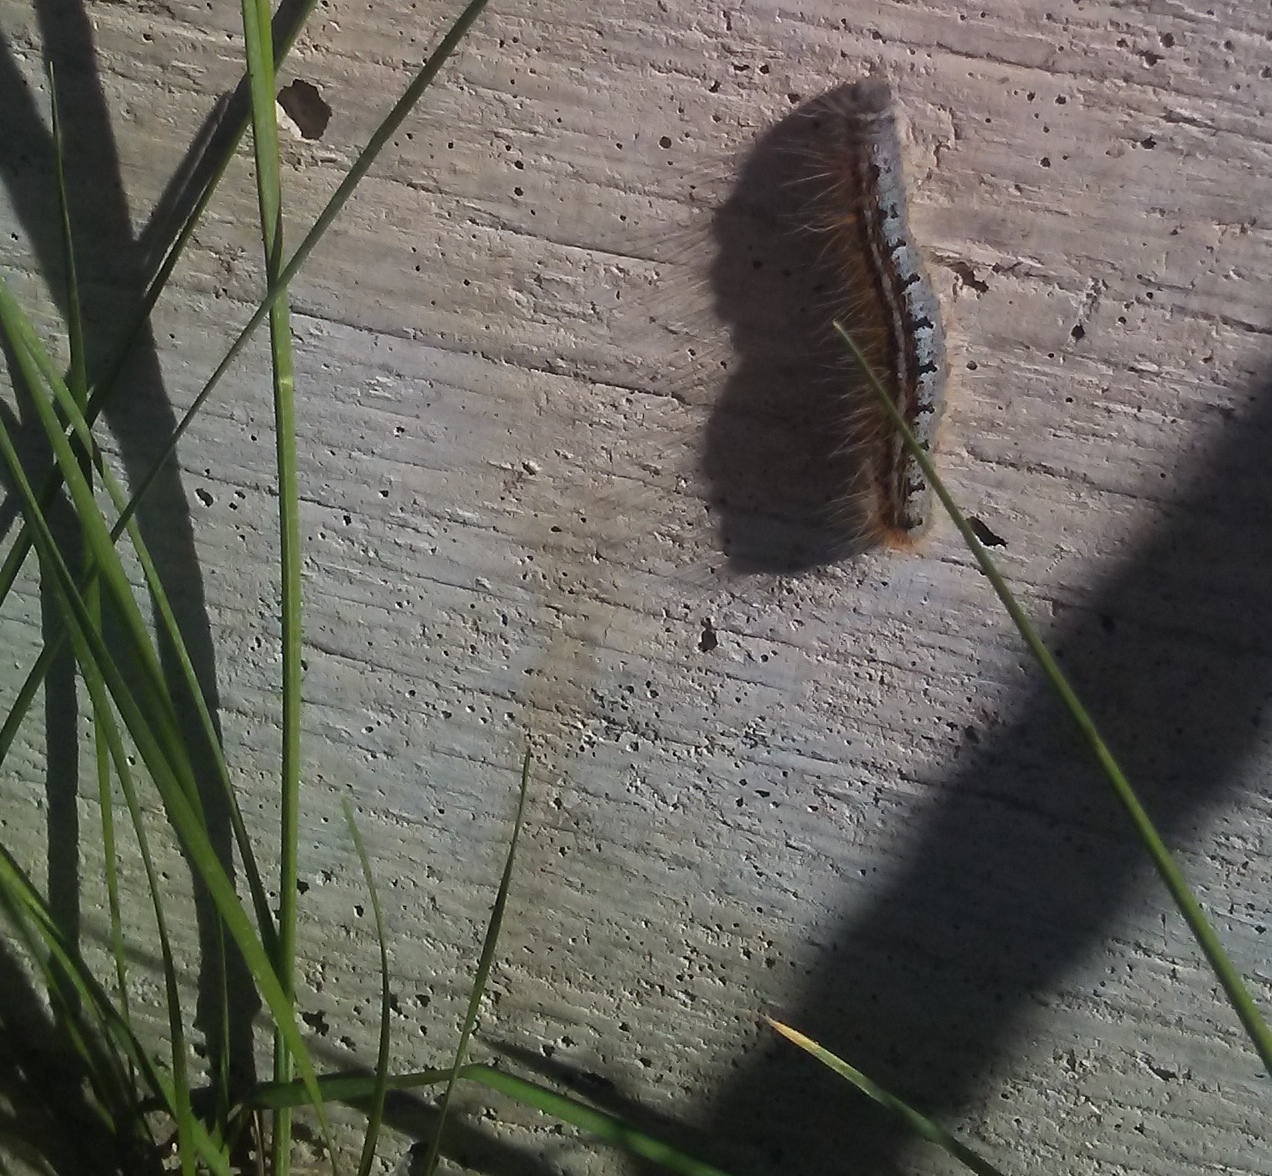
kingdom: Animalia
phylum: Arthropoda
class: Insecta
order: Lepidoptera
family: Lasiocampidae
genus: Malacosoma
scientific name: Malacosoma californica
